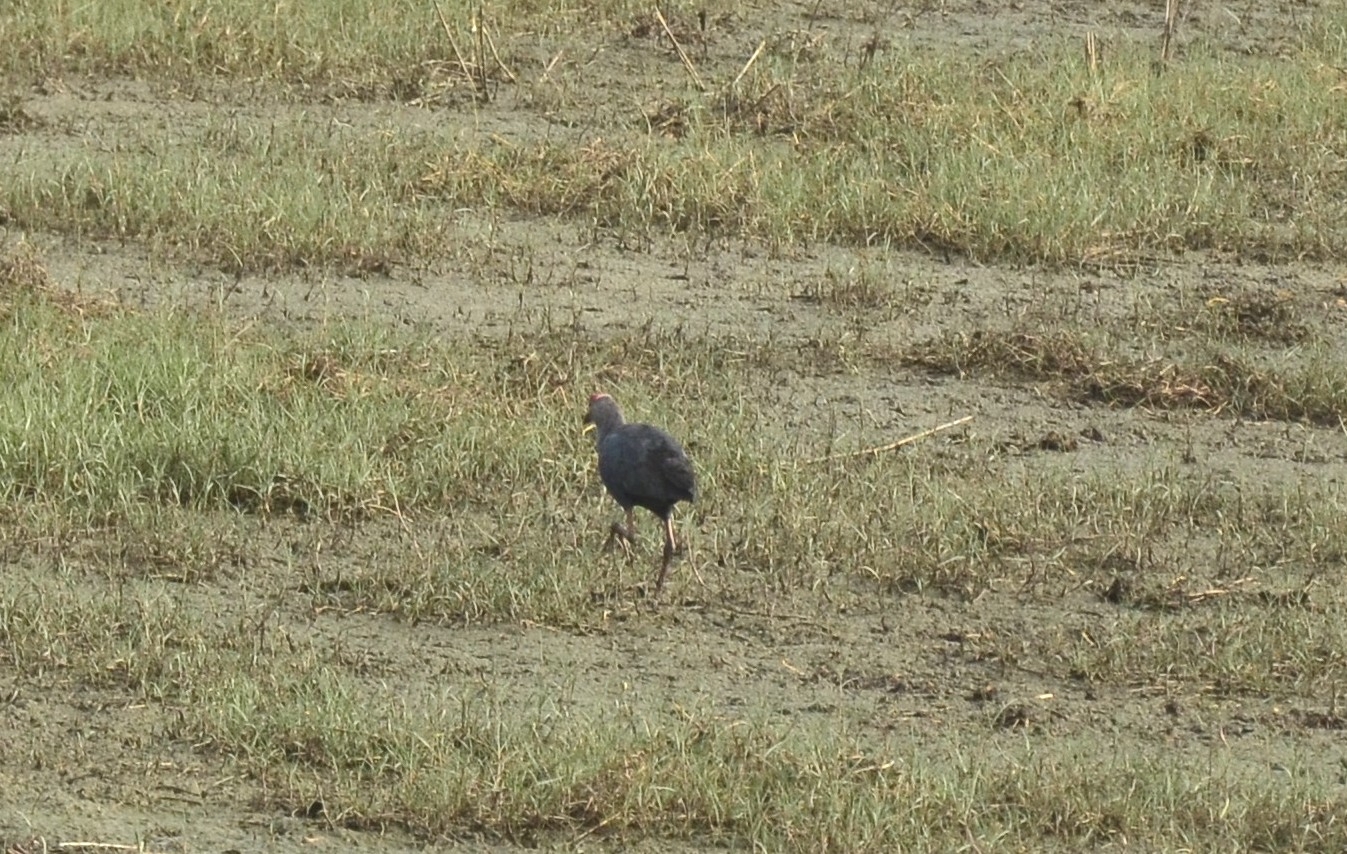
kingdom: Animalia
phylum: Chordata
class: Aves
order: Gruiformes
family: Rallidae
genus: Porphyrio
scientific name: Porphyrio porphyrio
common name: Purple swamphen
